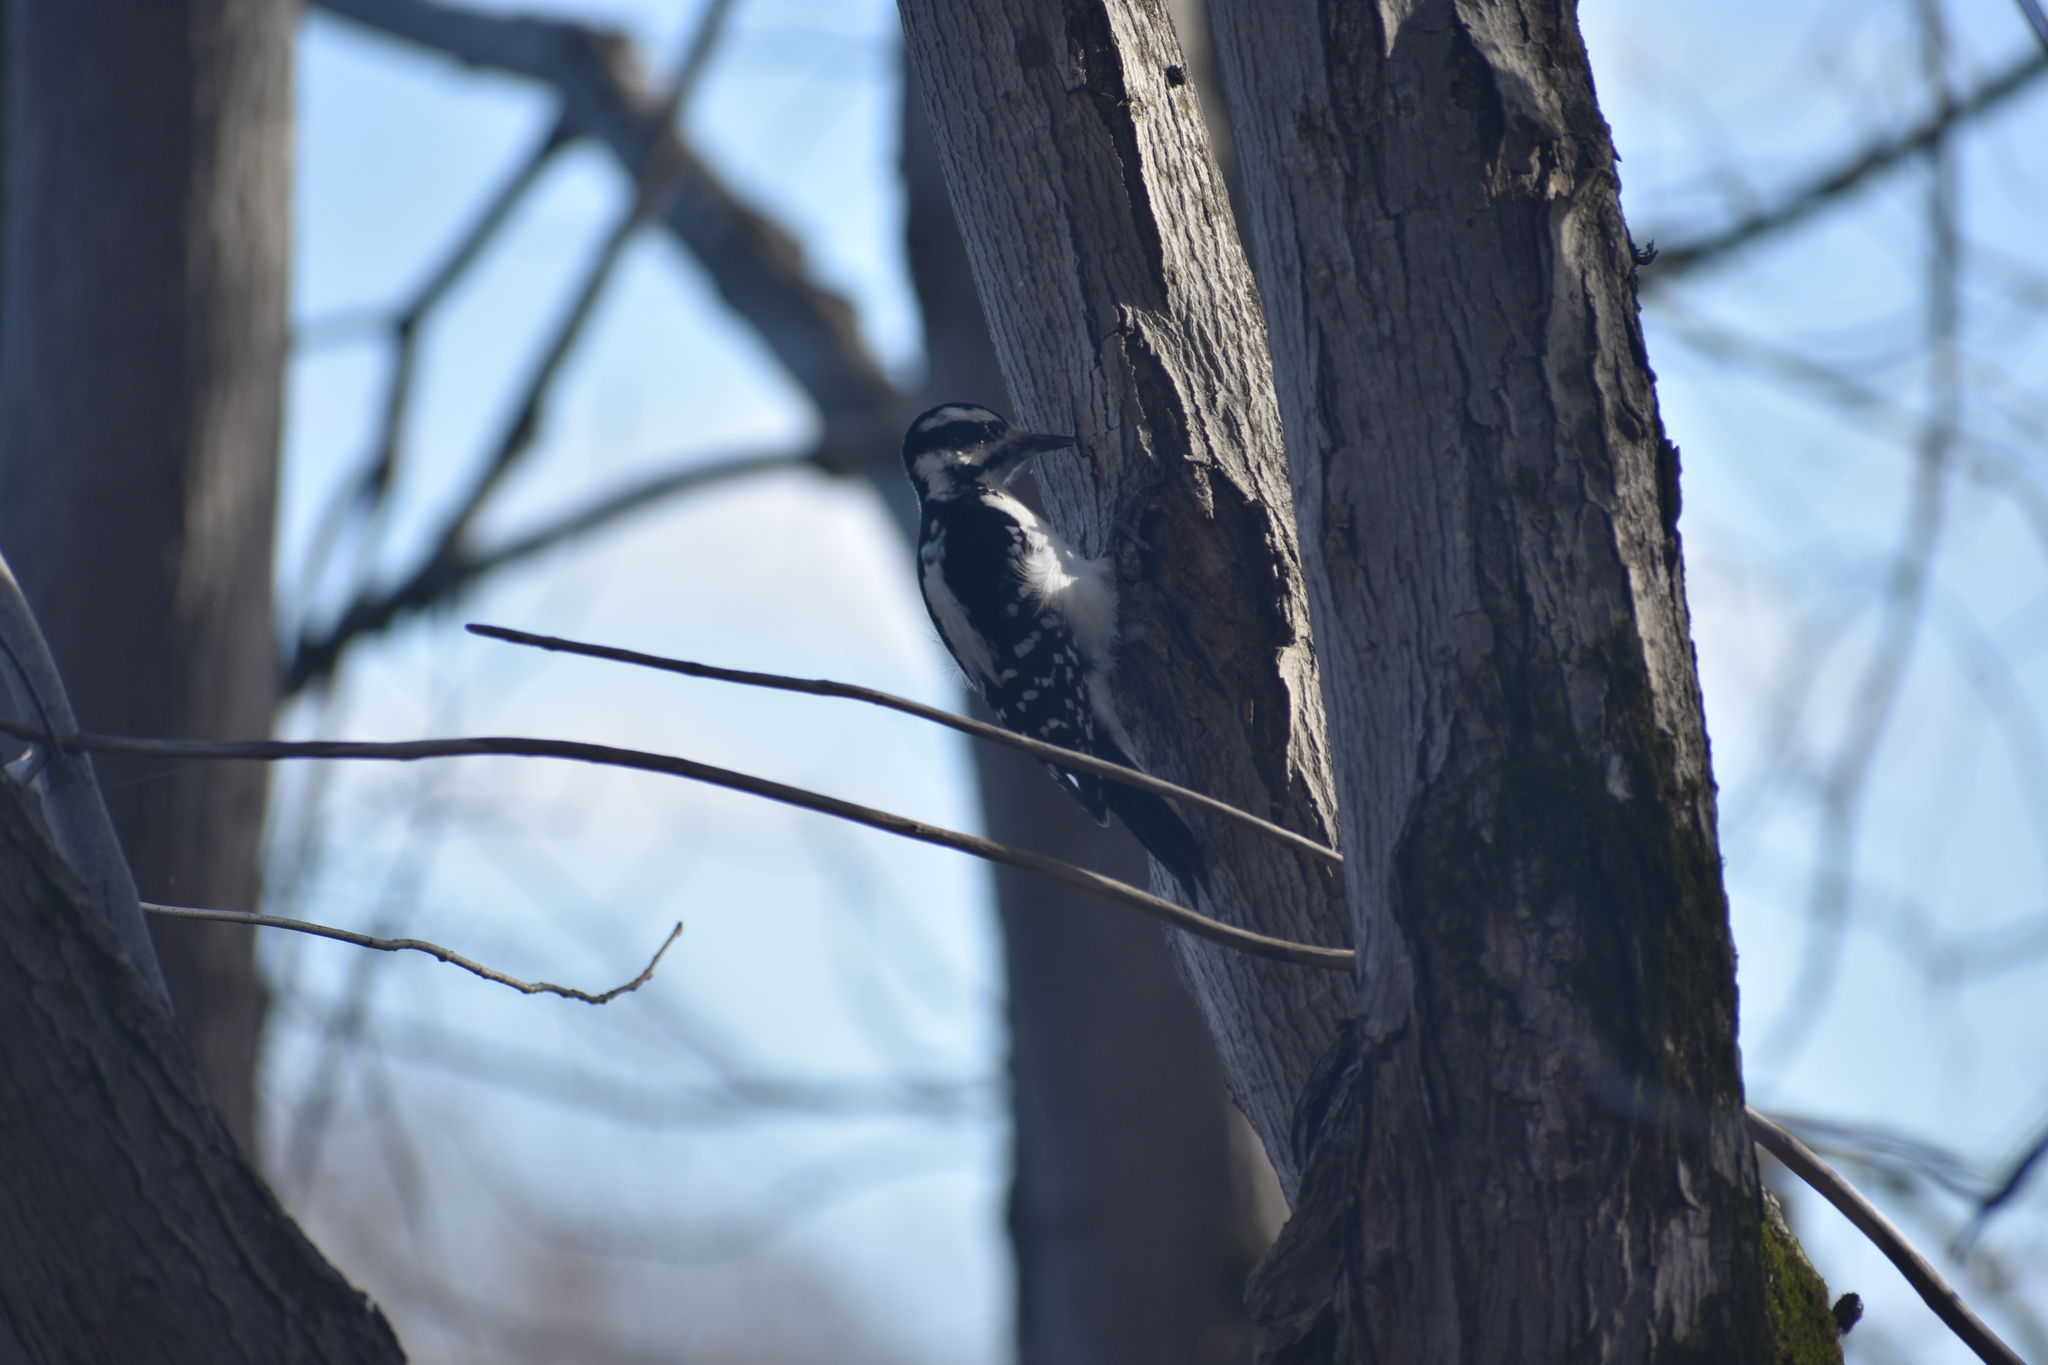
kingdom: Animalia
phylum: Chordata
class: Aves
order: Piciformes
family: Picidae
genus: Leuconotopicus
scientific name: Leuconotopicus villosus
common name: Hairy woodpecker
